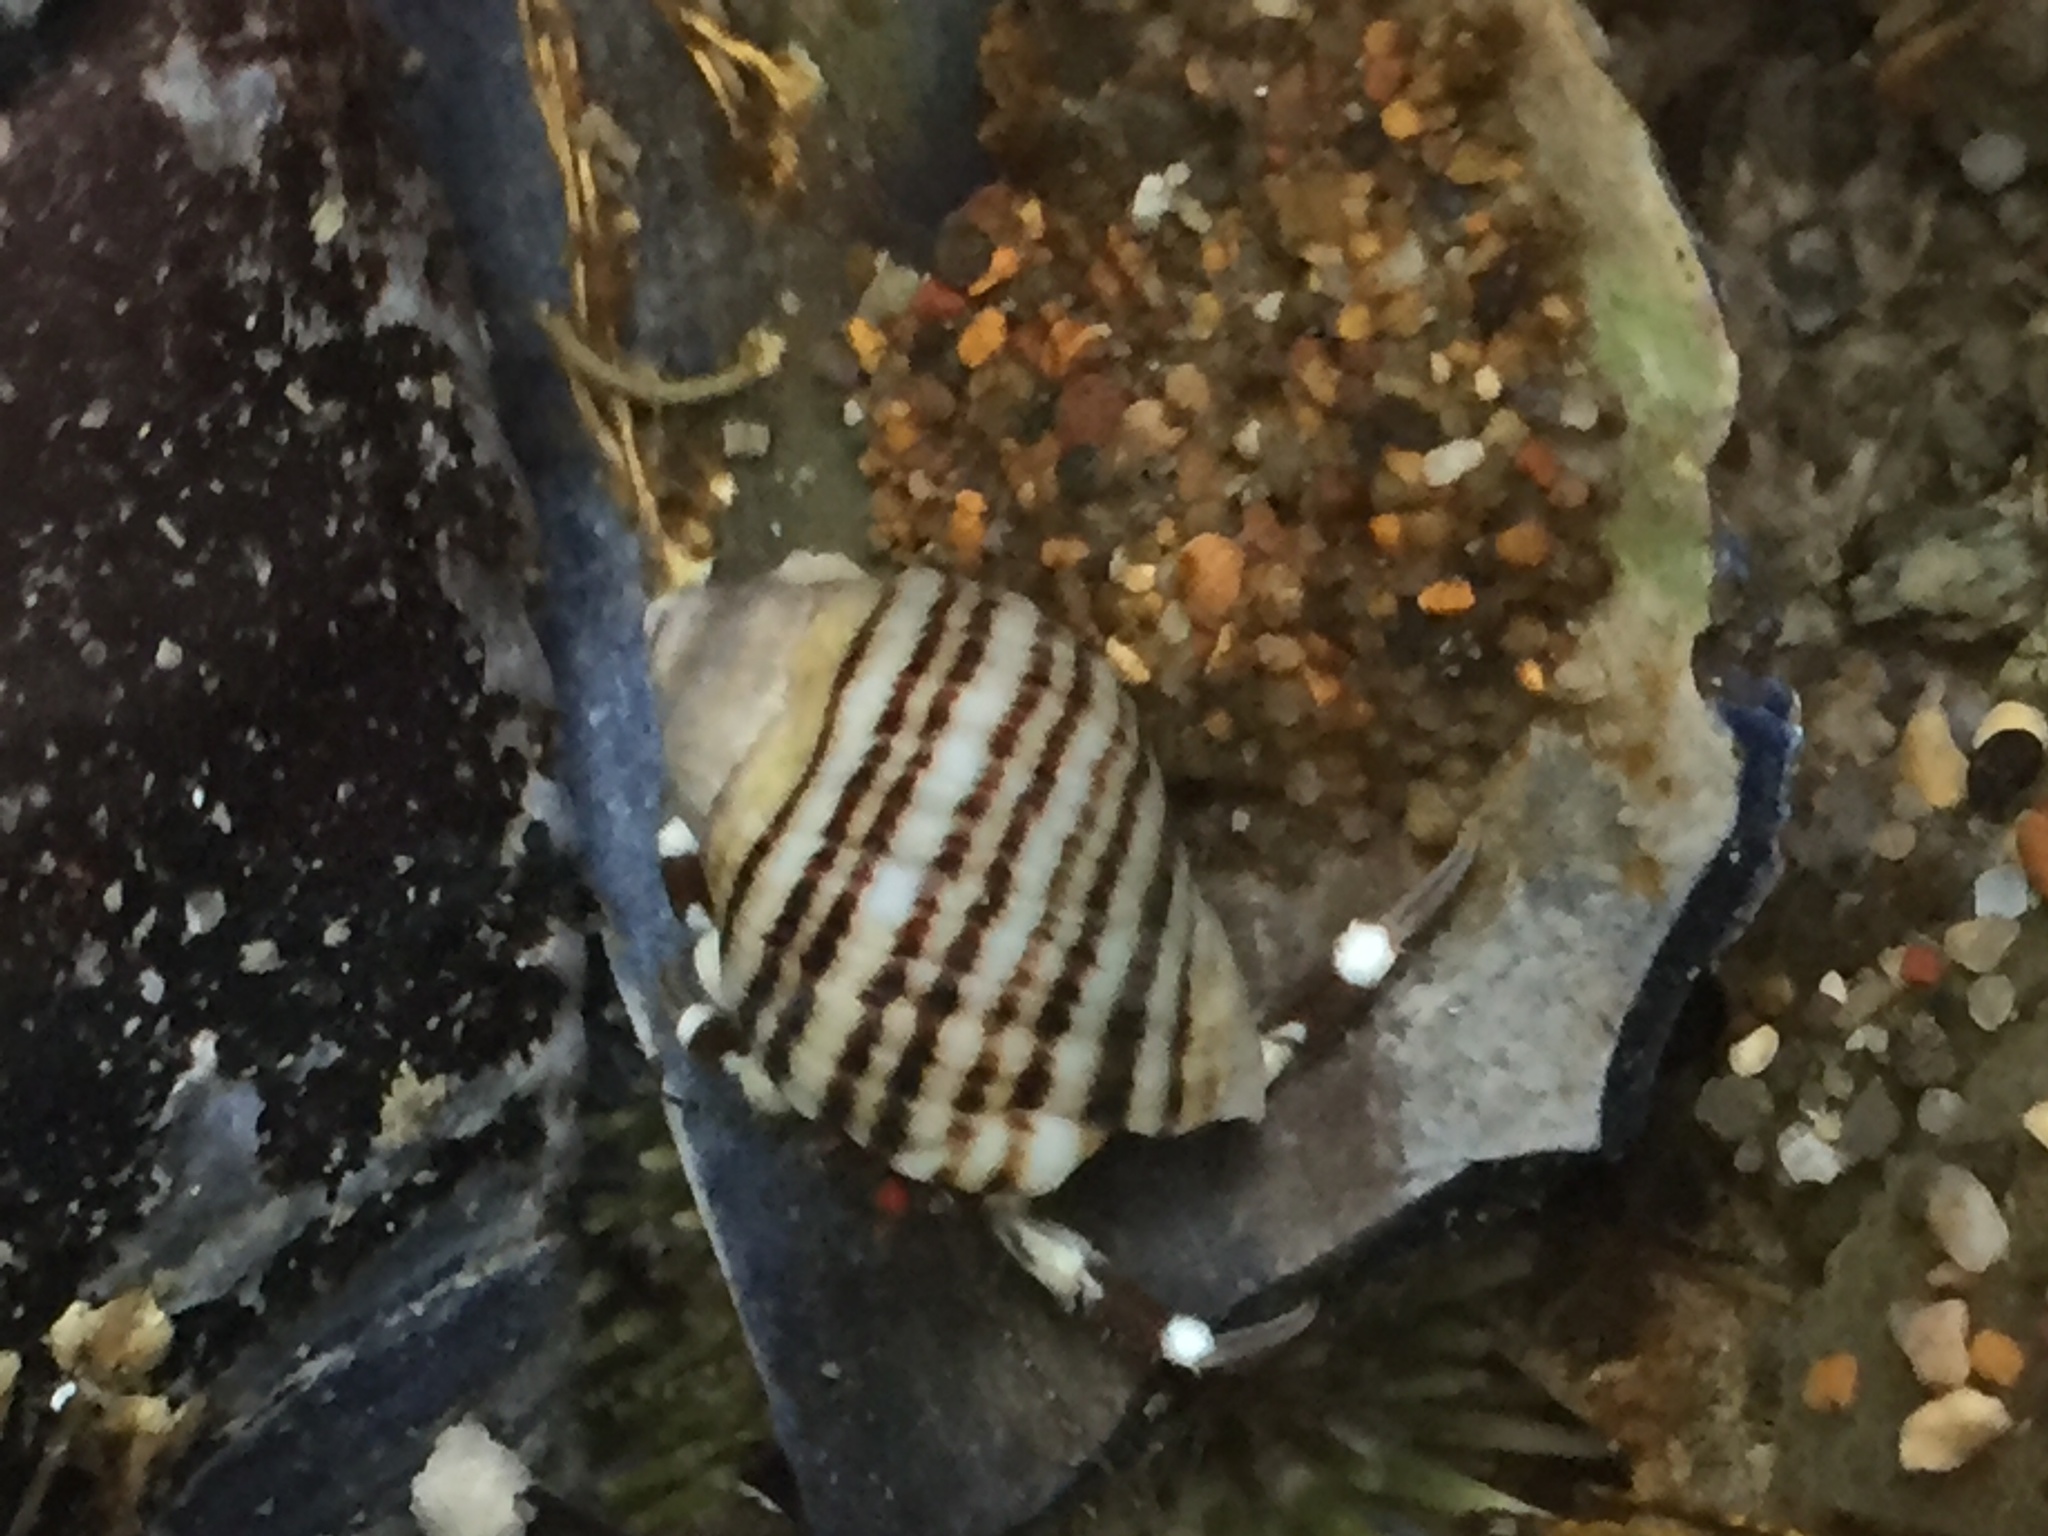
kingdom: Animalia
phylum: Mollusca
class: Gastropoda
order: Neogastropoda
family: Muricidae
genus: Nucella
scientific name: Nucella ostrina
